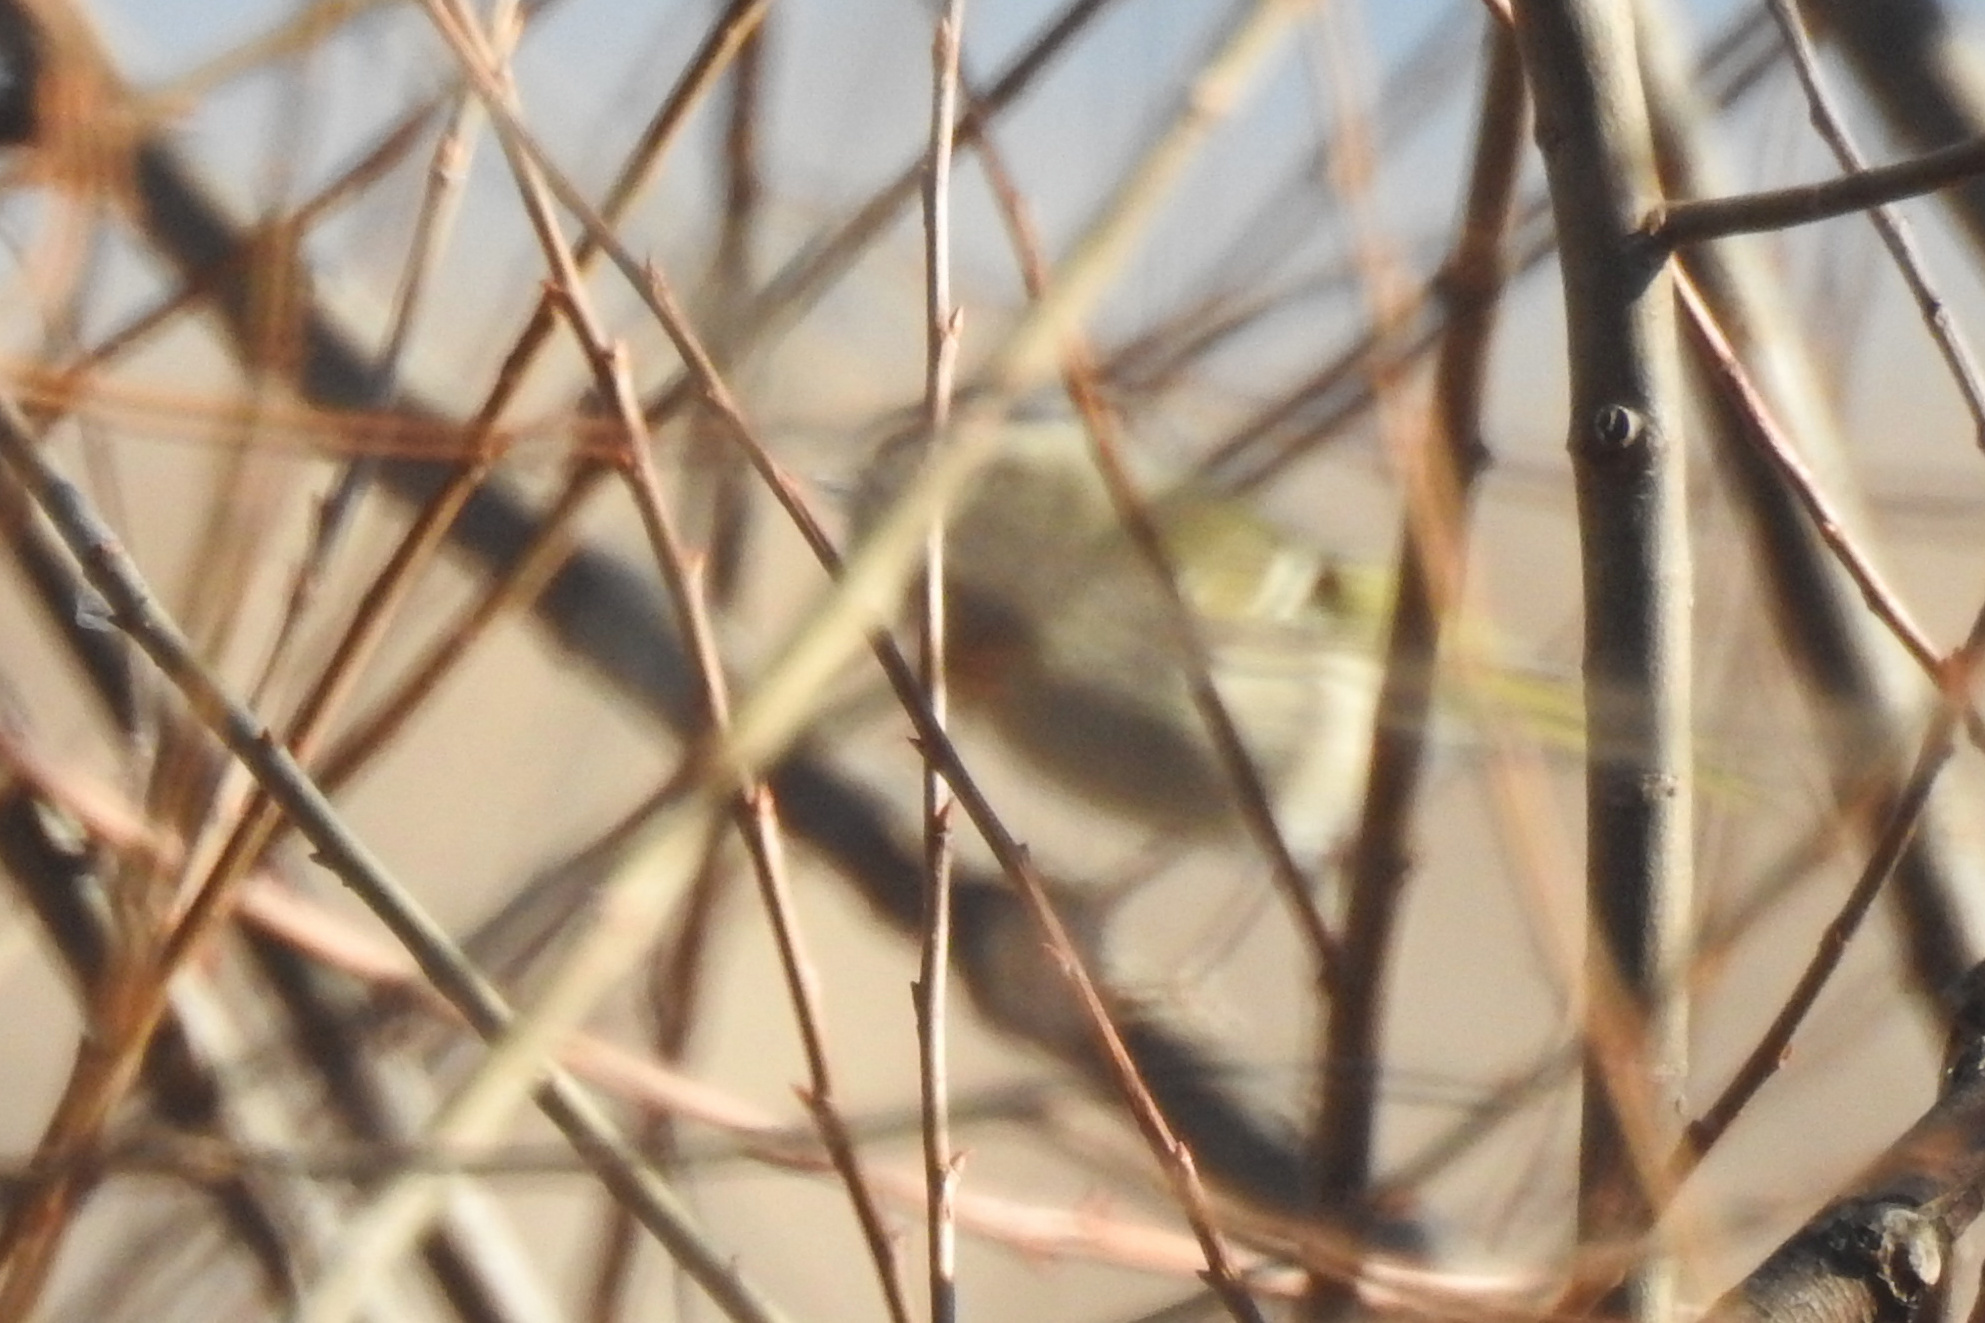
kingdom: Animalia
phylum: Chordata
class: Aves
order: Passeriformes
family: Regulidae
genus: Regulus
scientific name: Regulus satrapa
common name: Golden-crowned kinglet
